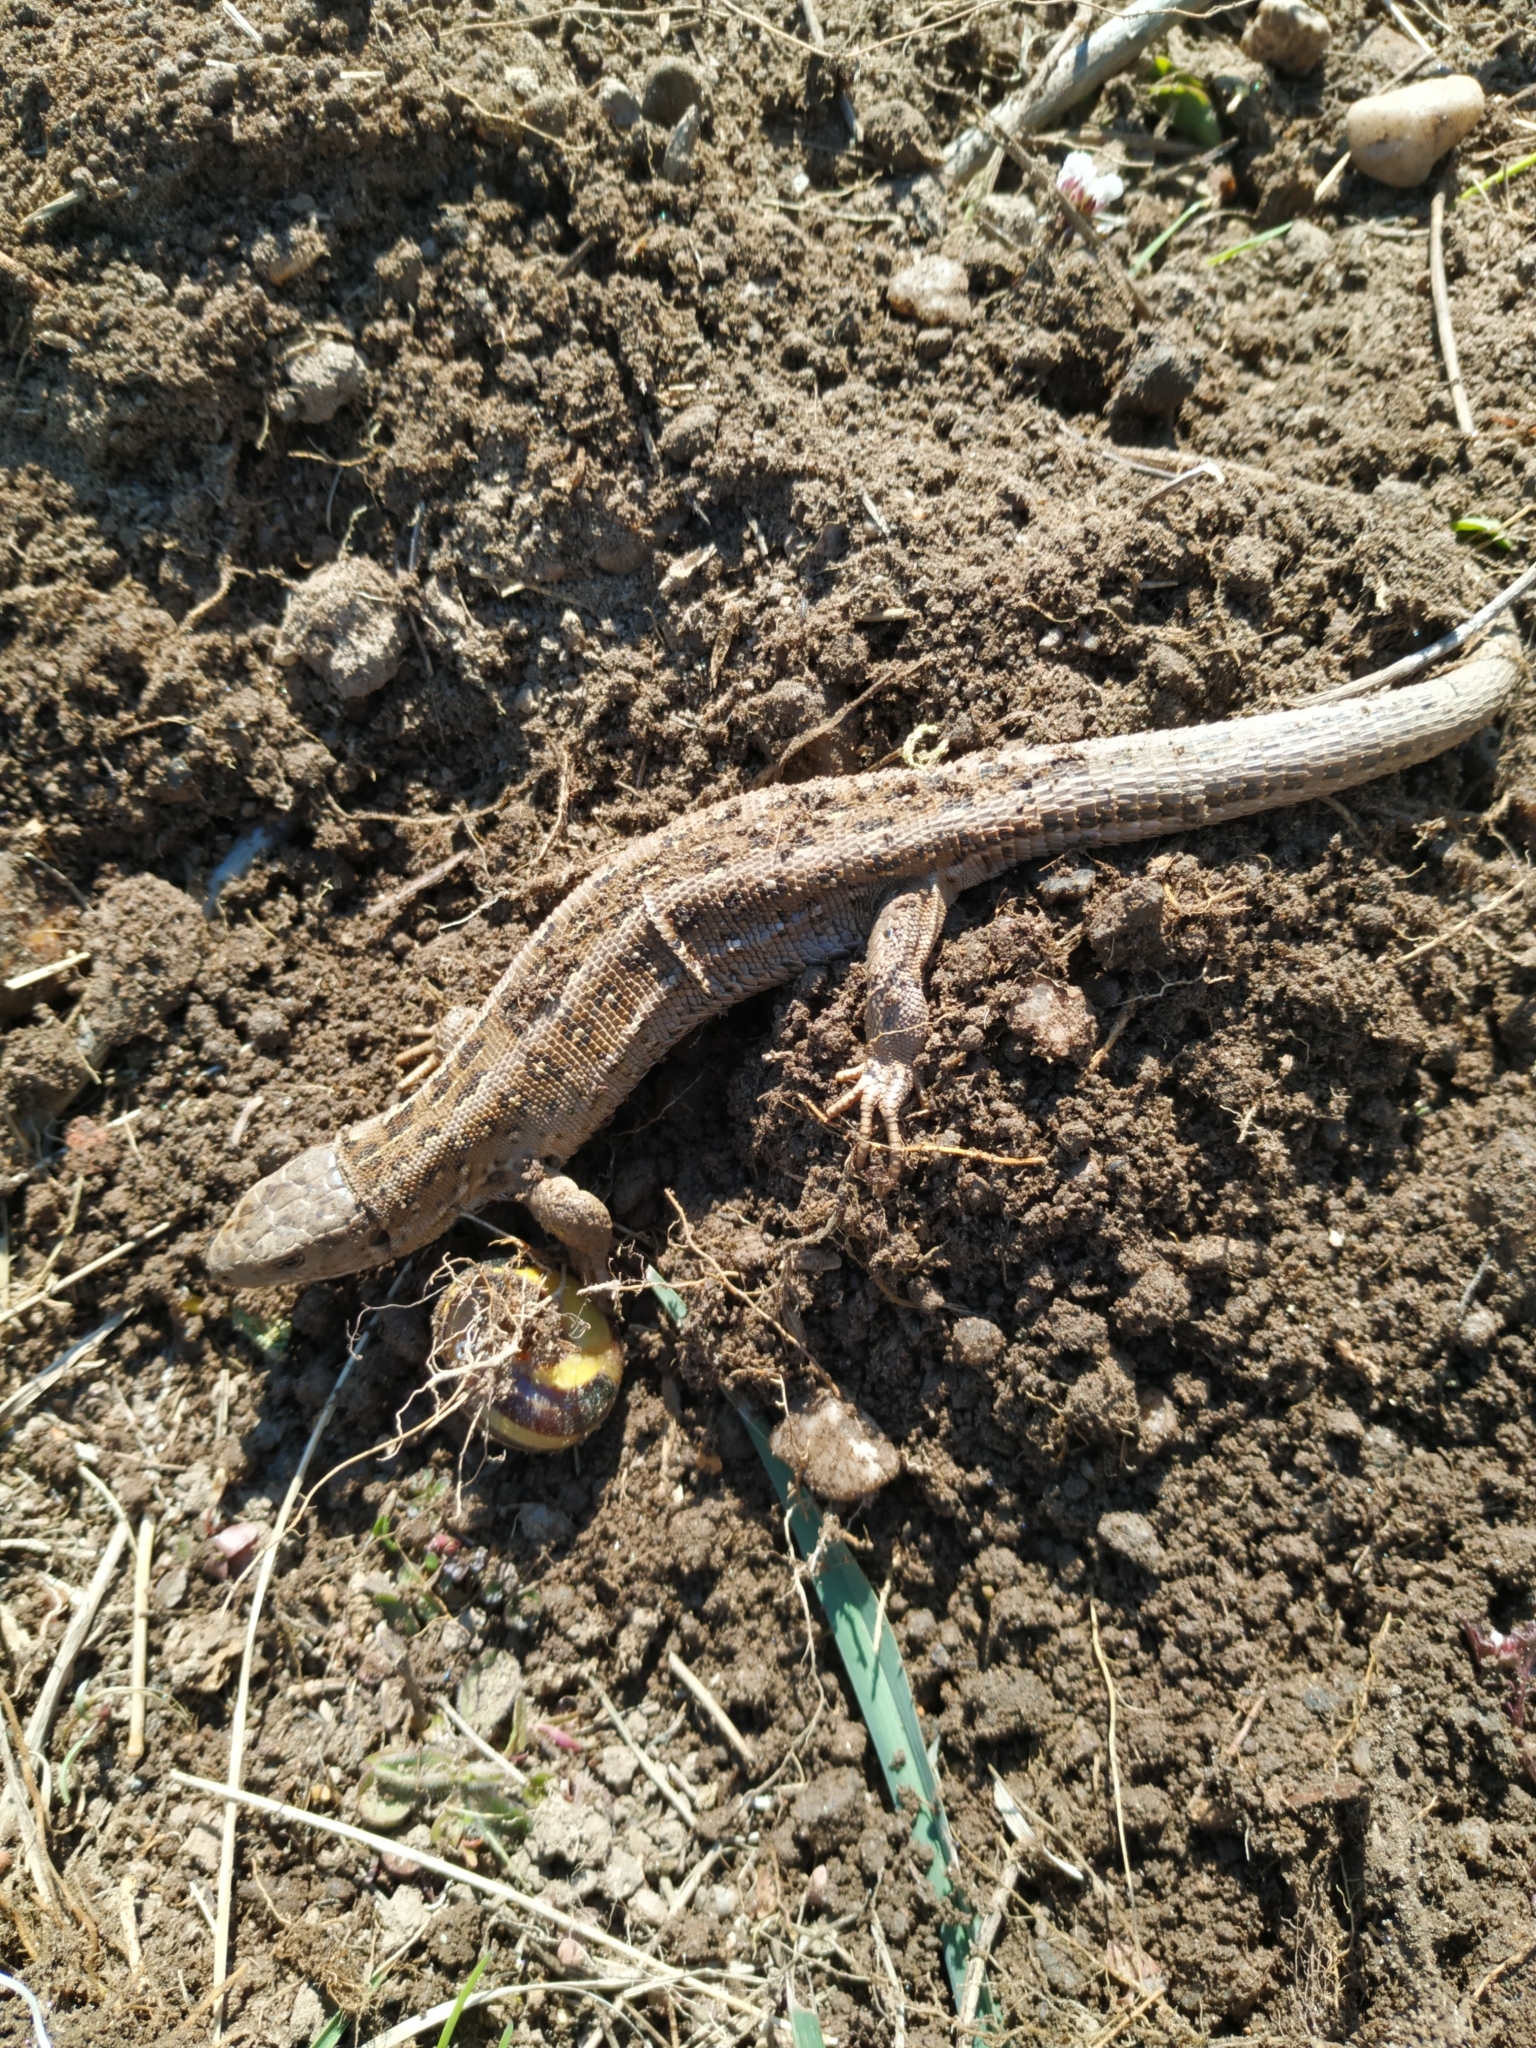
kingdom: Animalia
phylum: Chordata
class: Squamata
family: Lacertidae
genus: Lacerta
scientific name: Lacerta agilis
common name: Sand lizard
